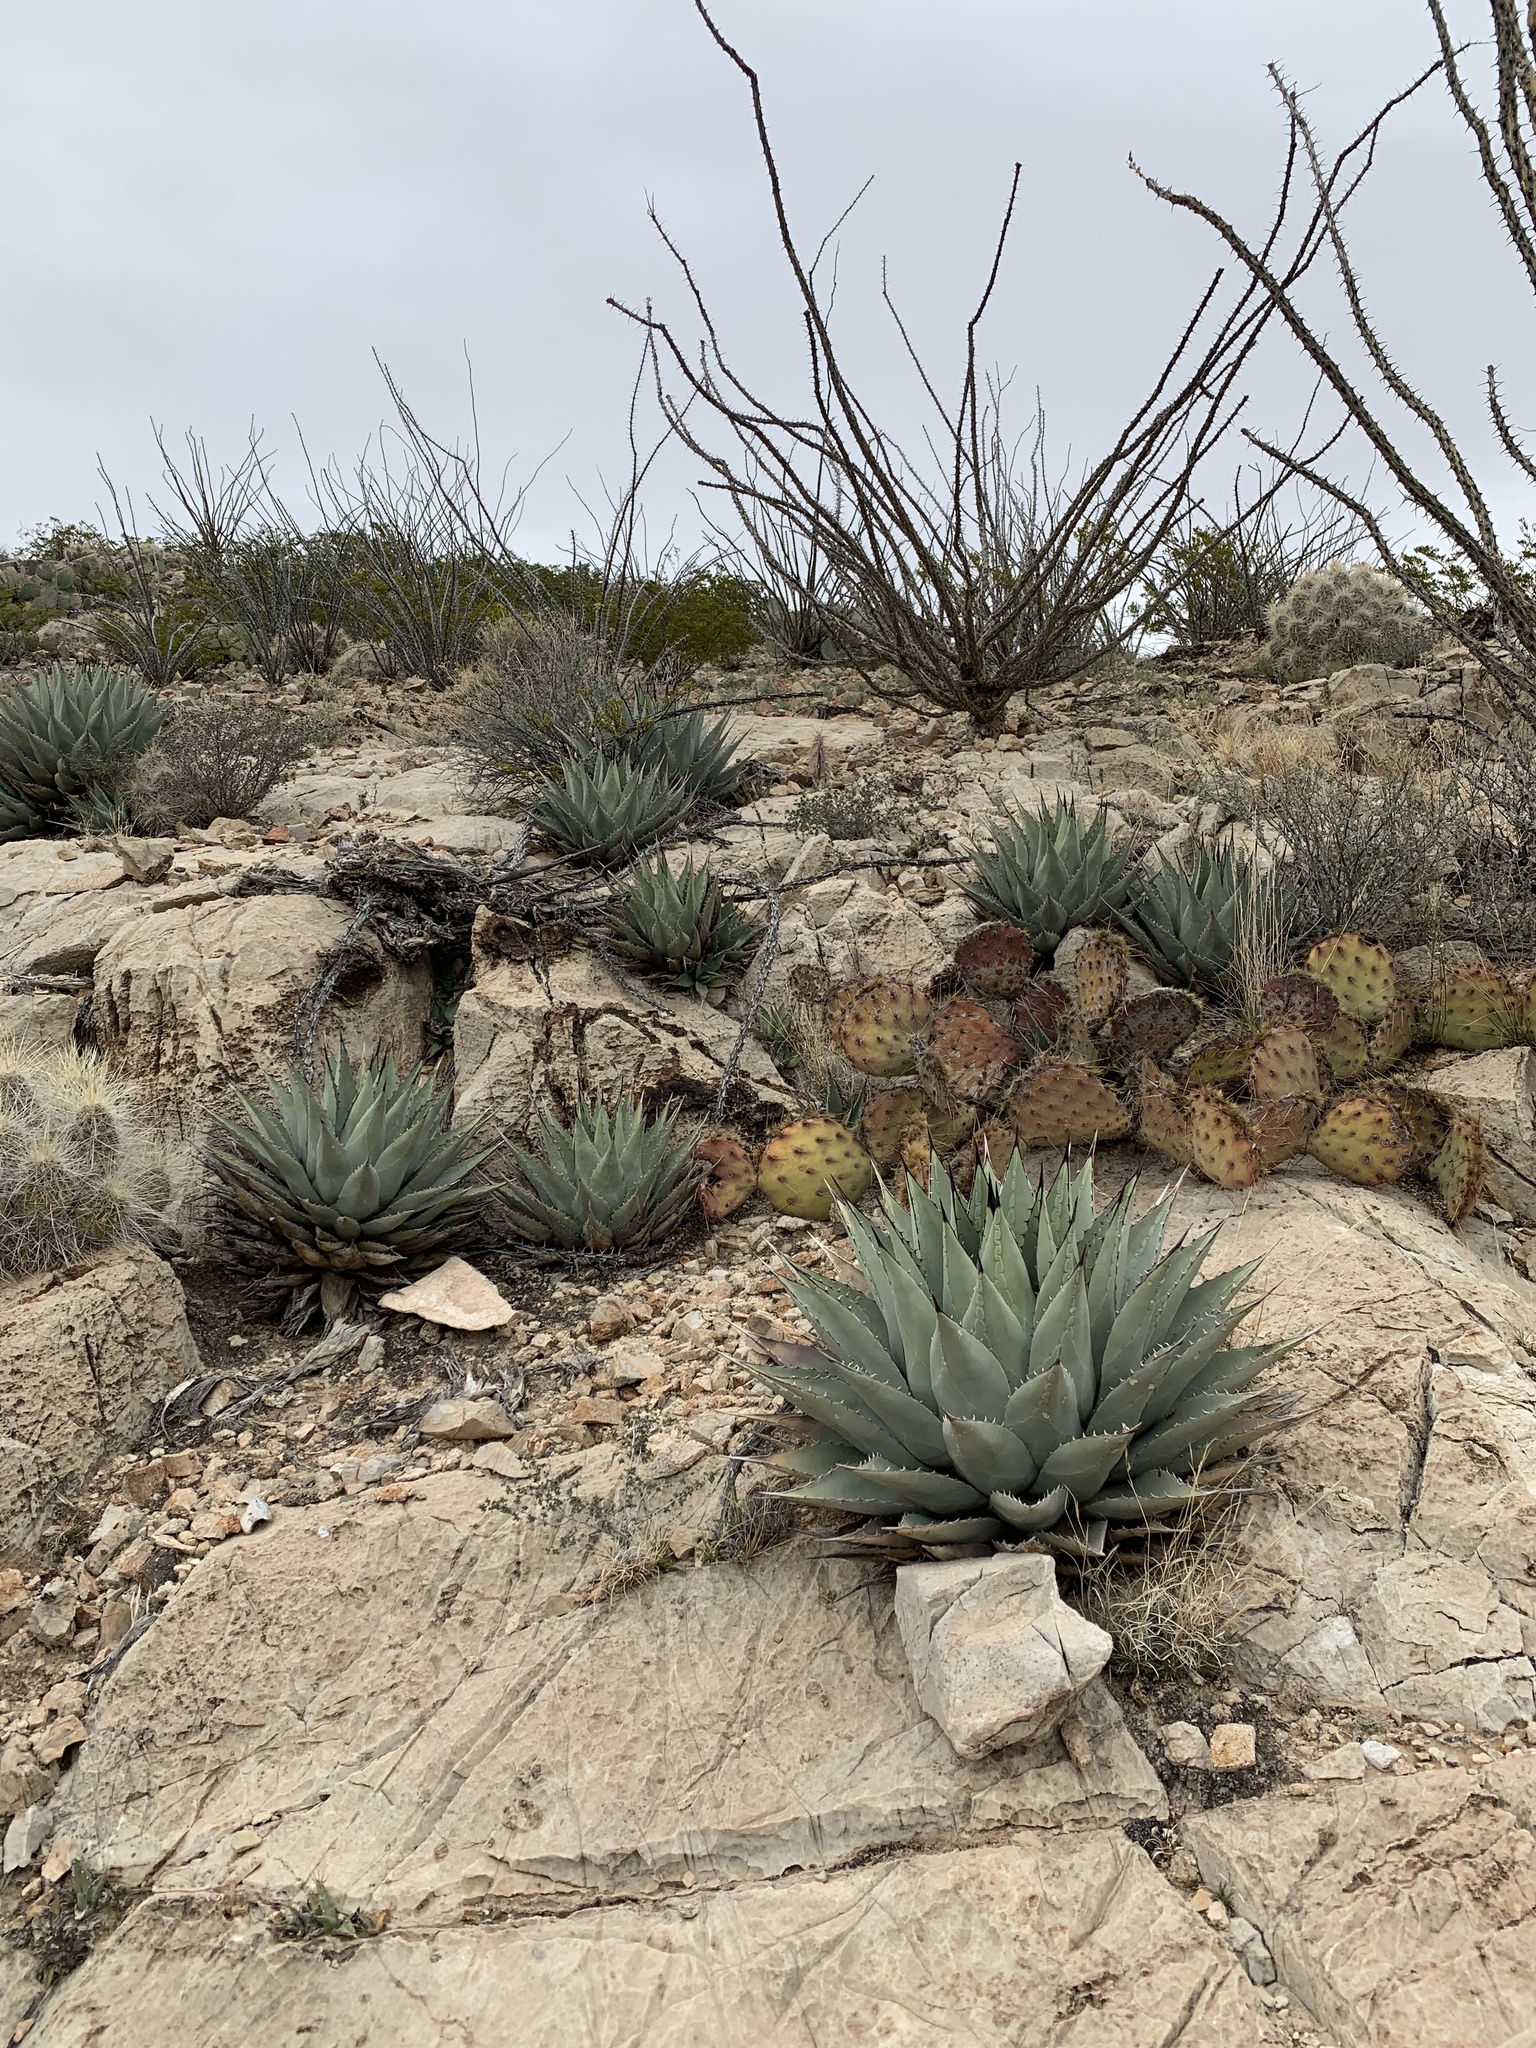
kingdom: Plantae
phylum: Tracheophyta
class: Liliopsida
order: Asparagales
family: Asparagaceae
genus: Agave
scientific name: Agave parryi
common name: Parry's agave
